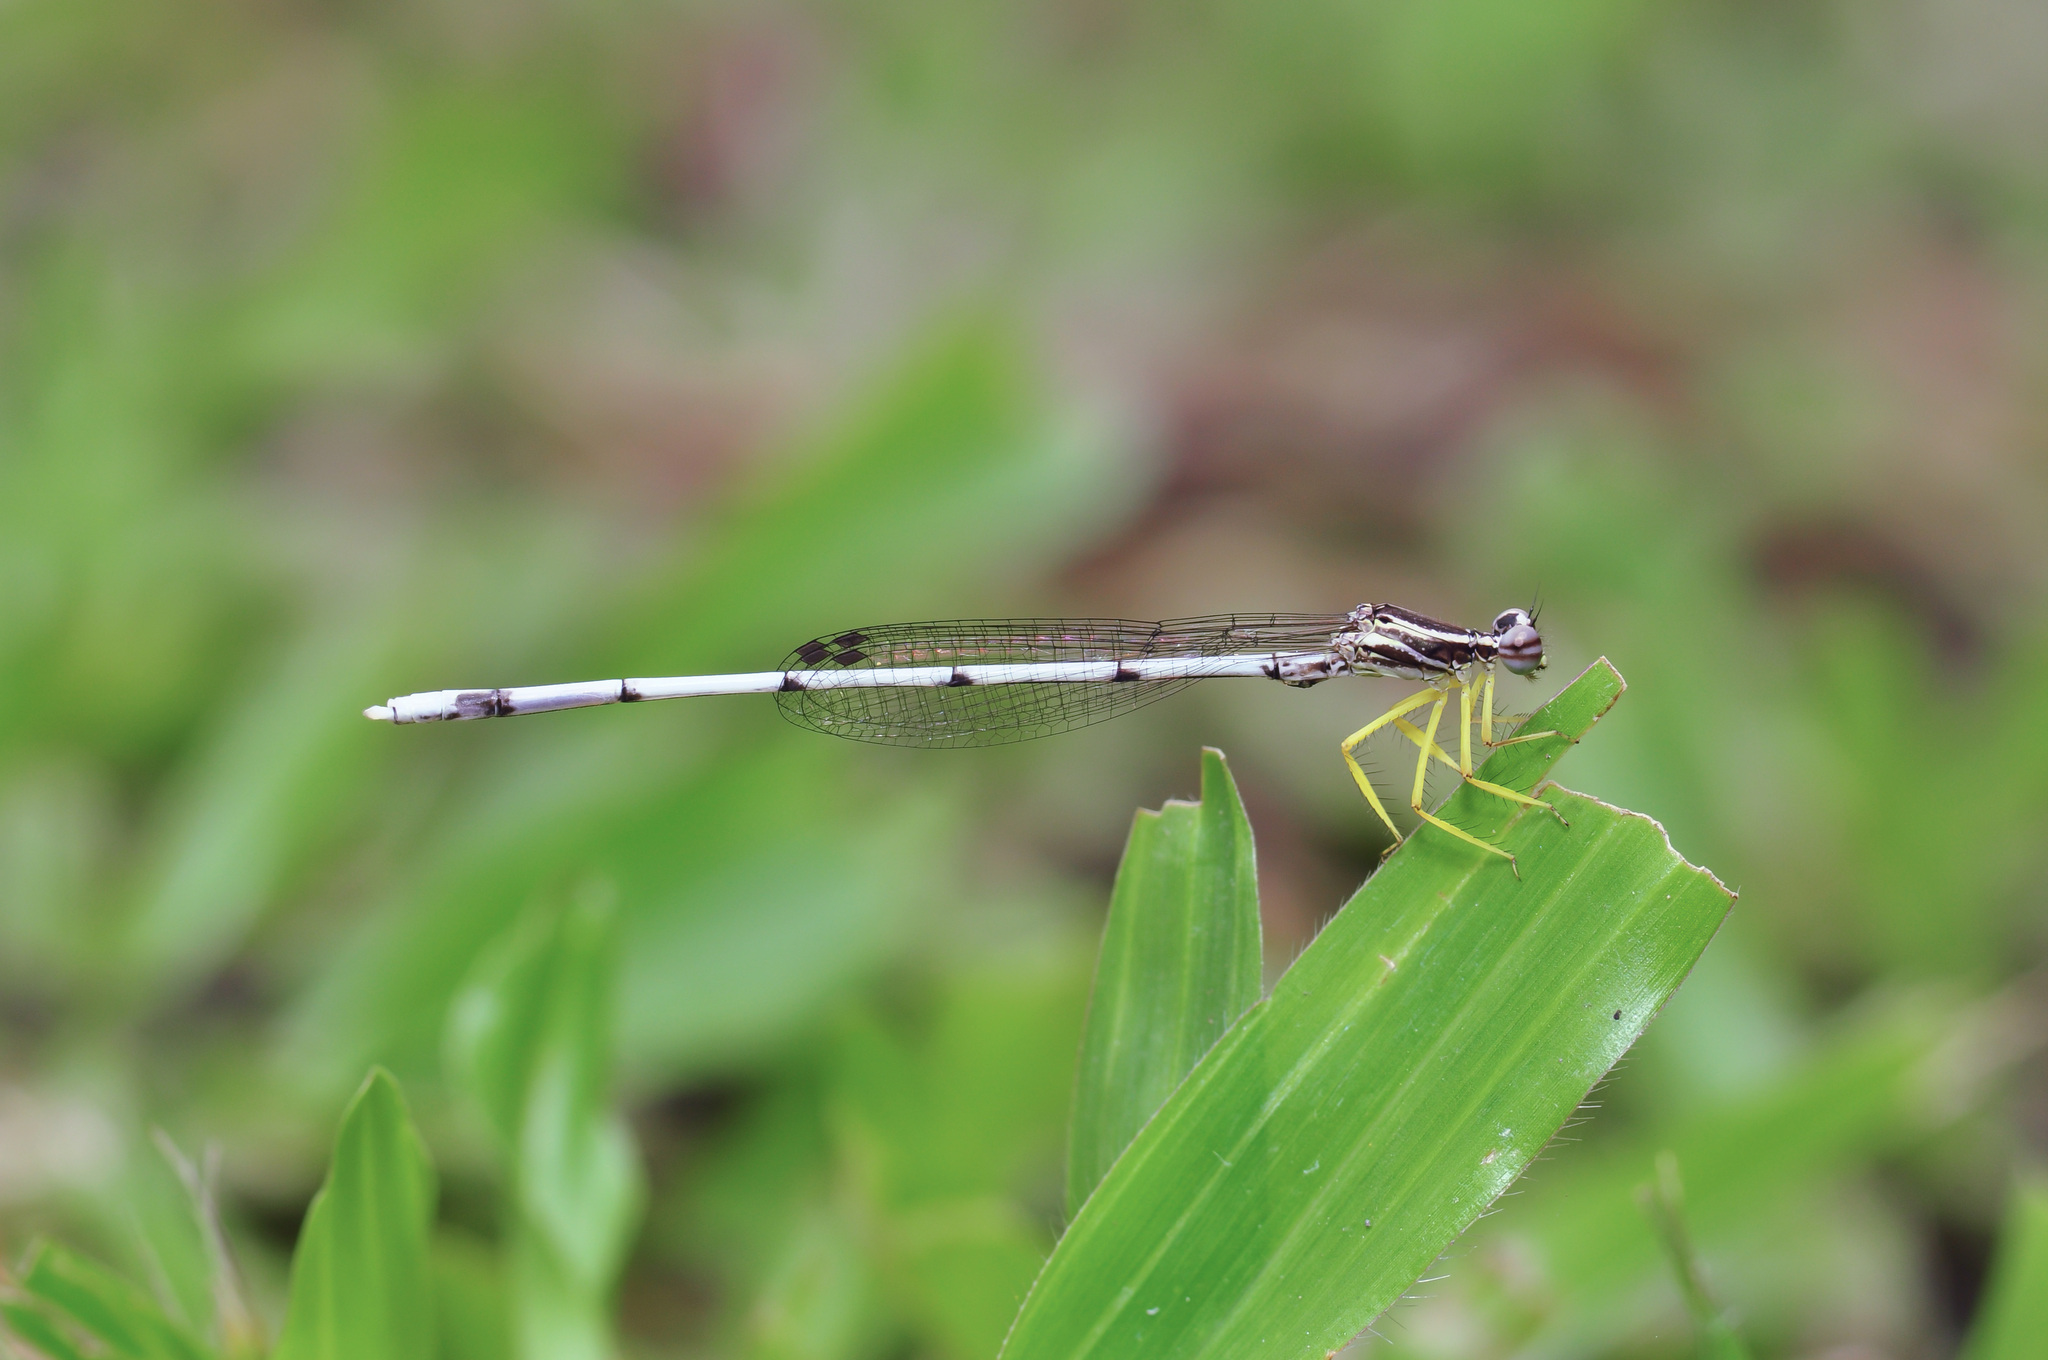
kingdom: Animalia
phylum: Arthropoda
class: Insecta
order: Odonata
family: Platycnemididae
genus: Copera
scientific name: Copera marginipes
